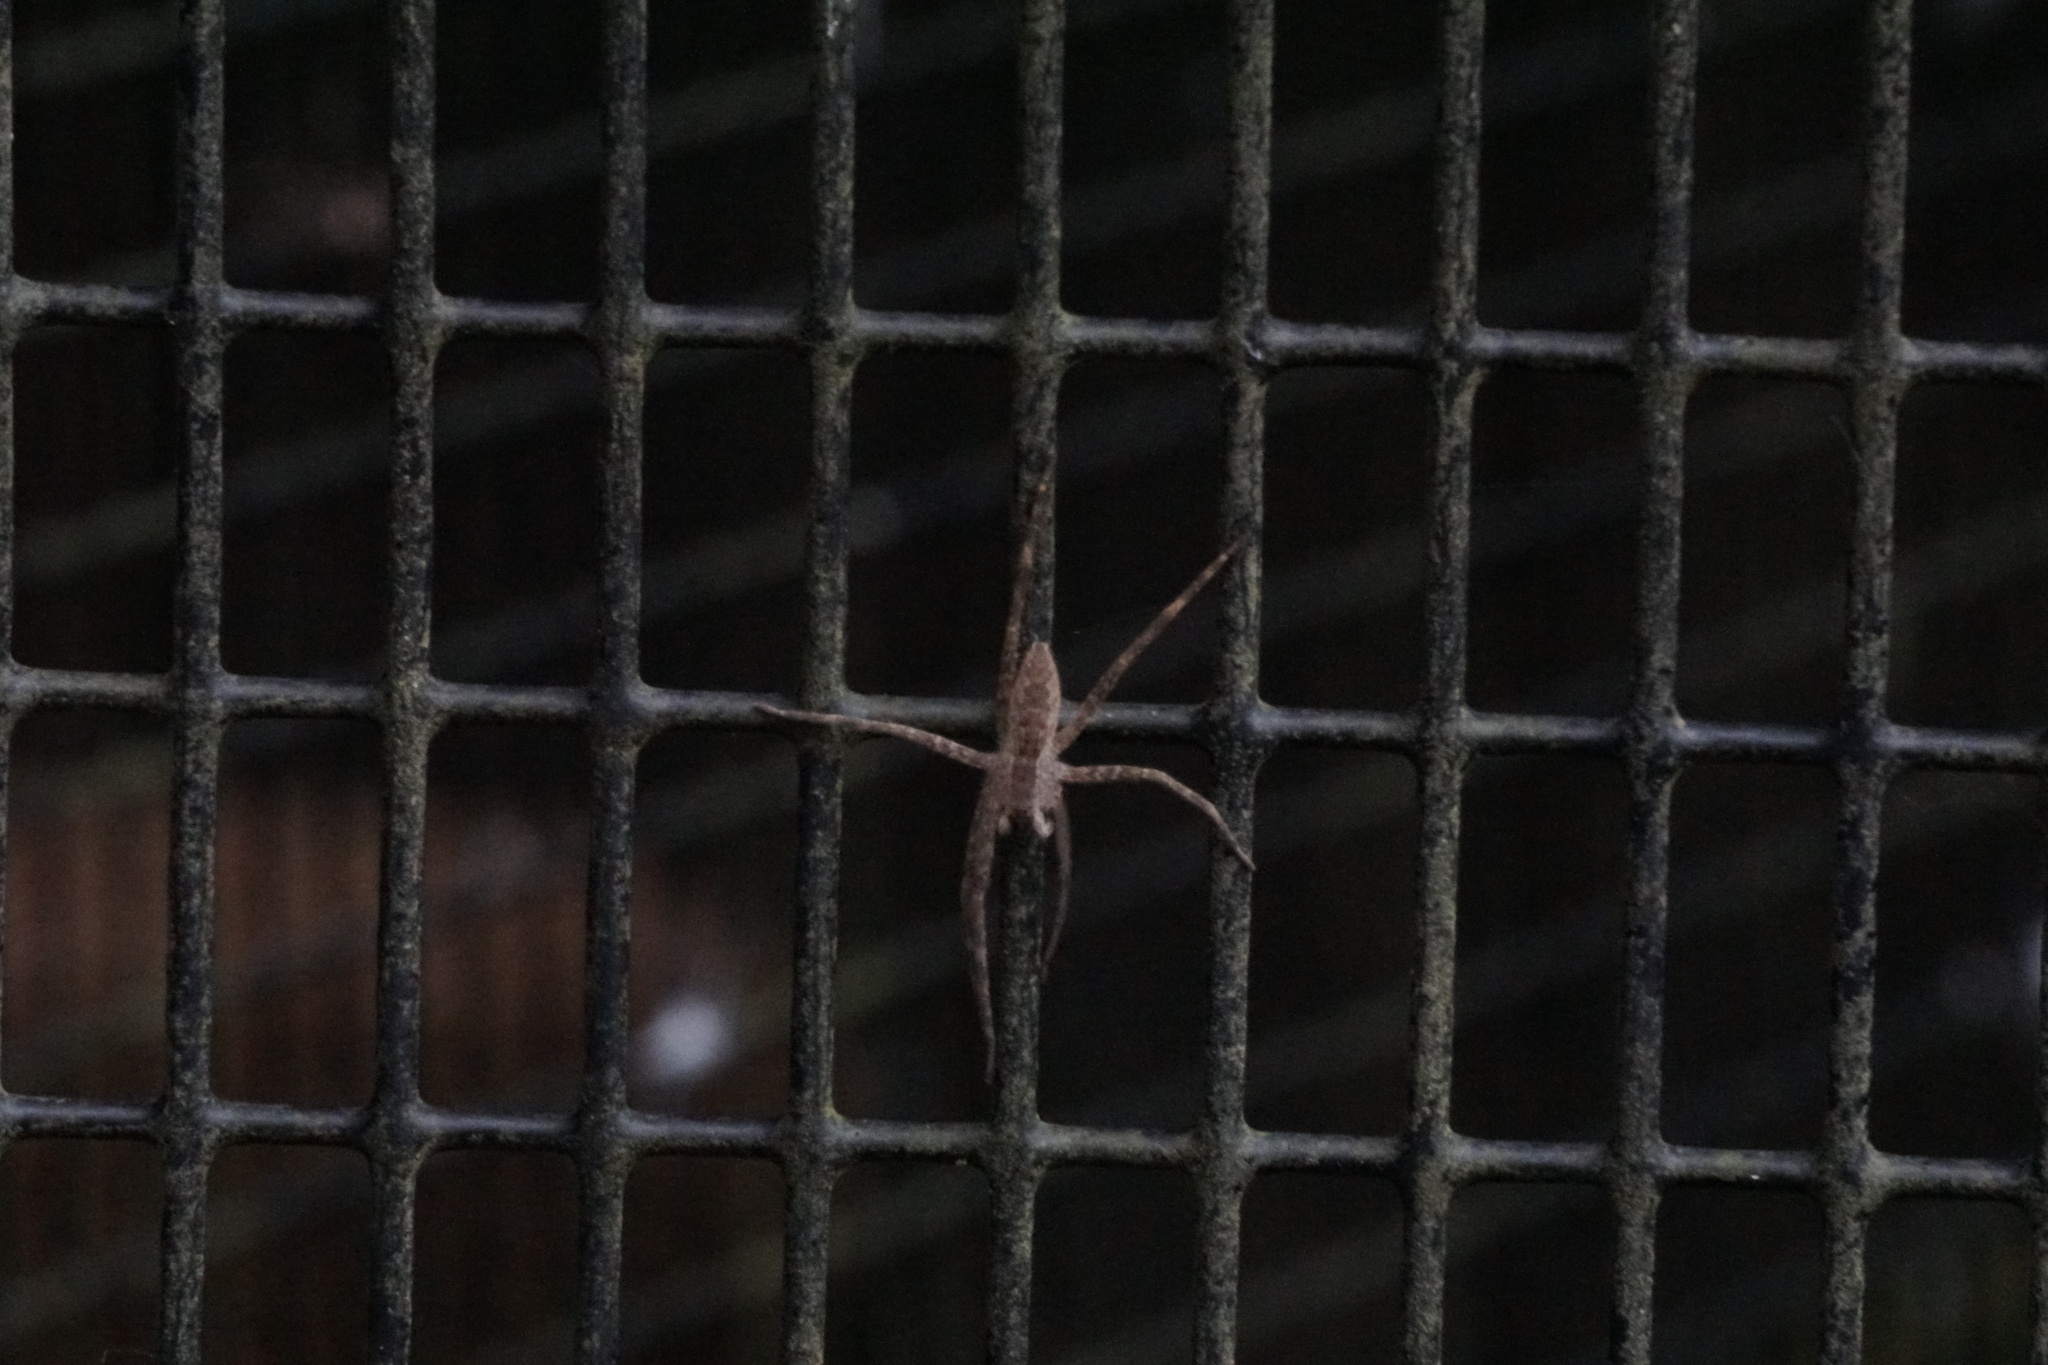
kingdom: Animalia
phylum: Arthropoda
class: Arachnida
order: Araneae
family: Pisauridae
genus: Pisaurina
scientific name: Pisaurina mira
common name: American nursery web spider
